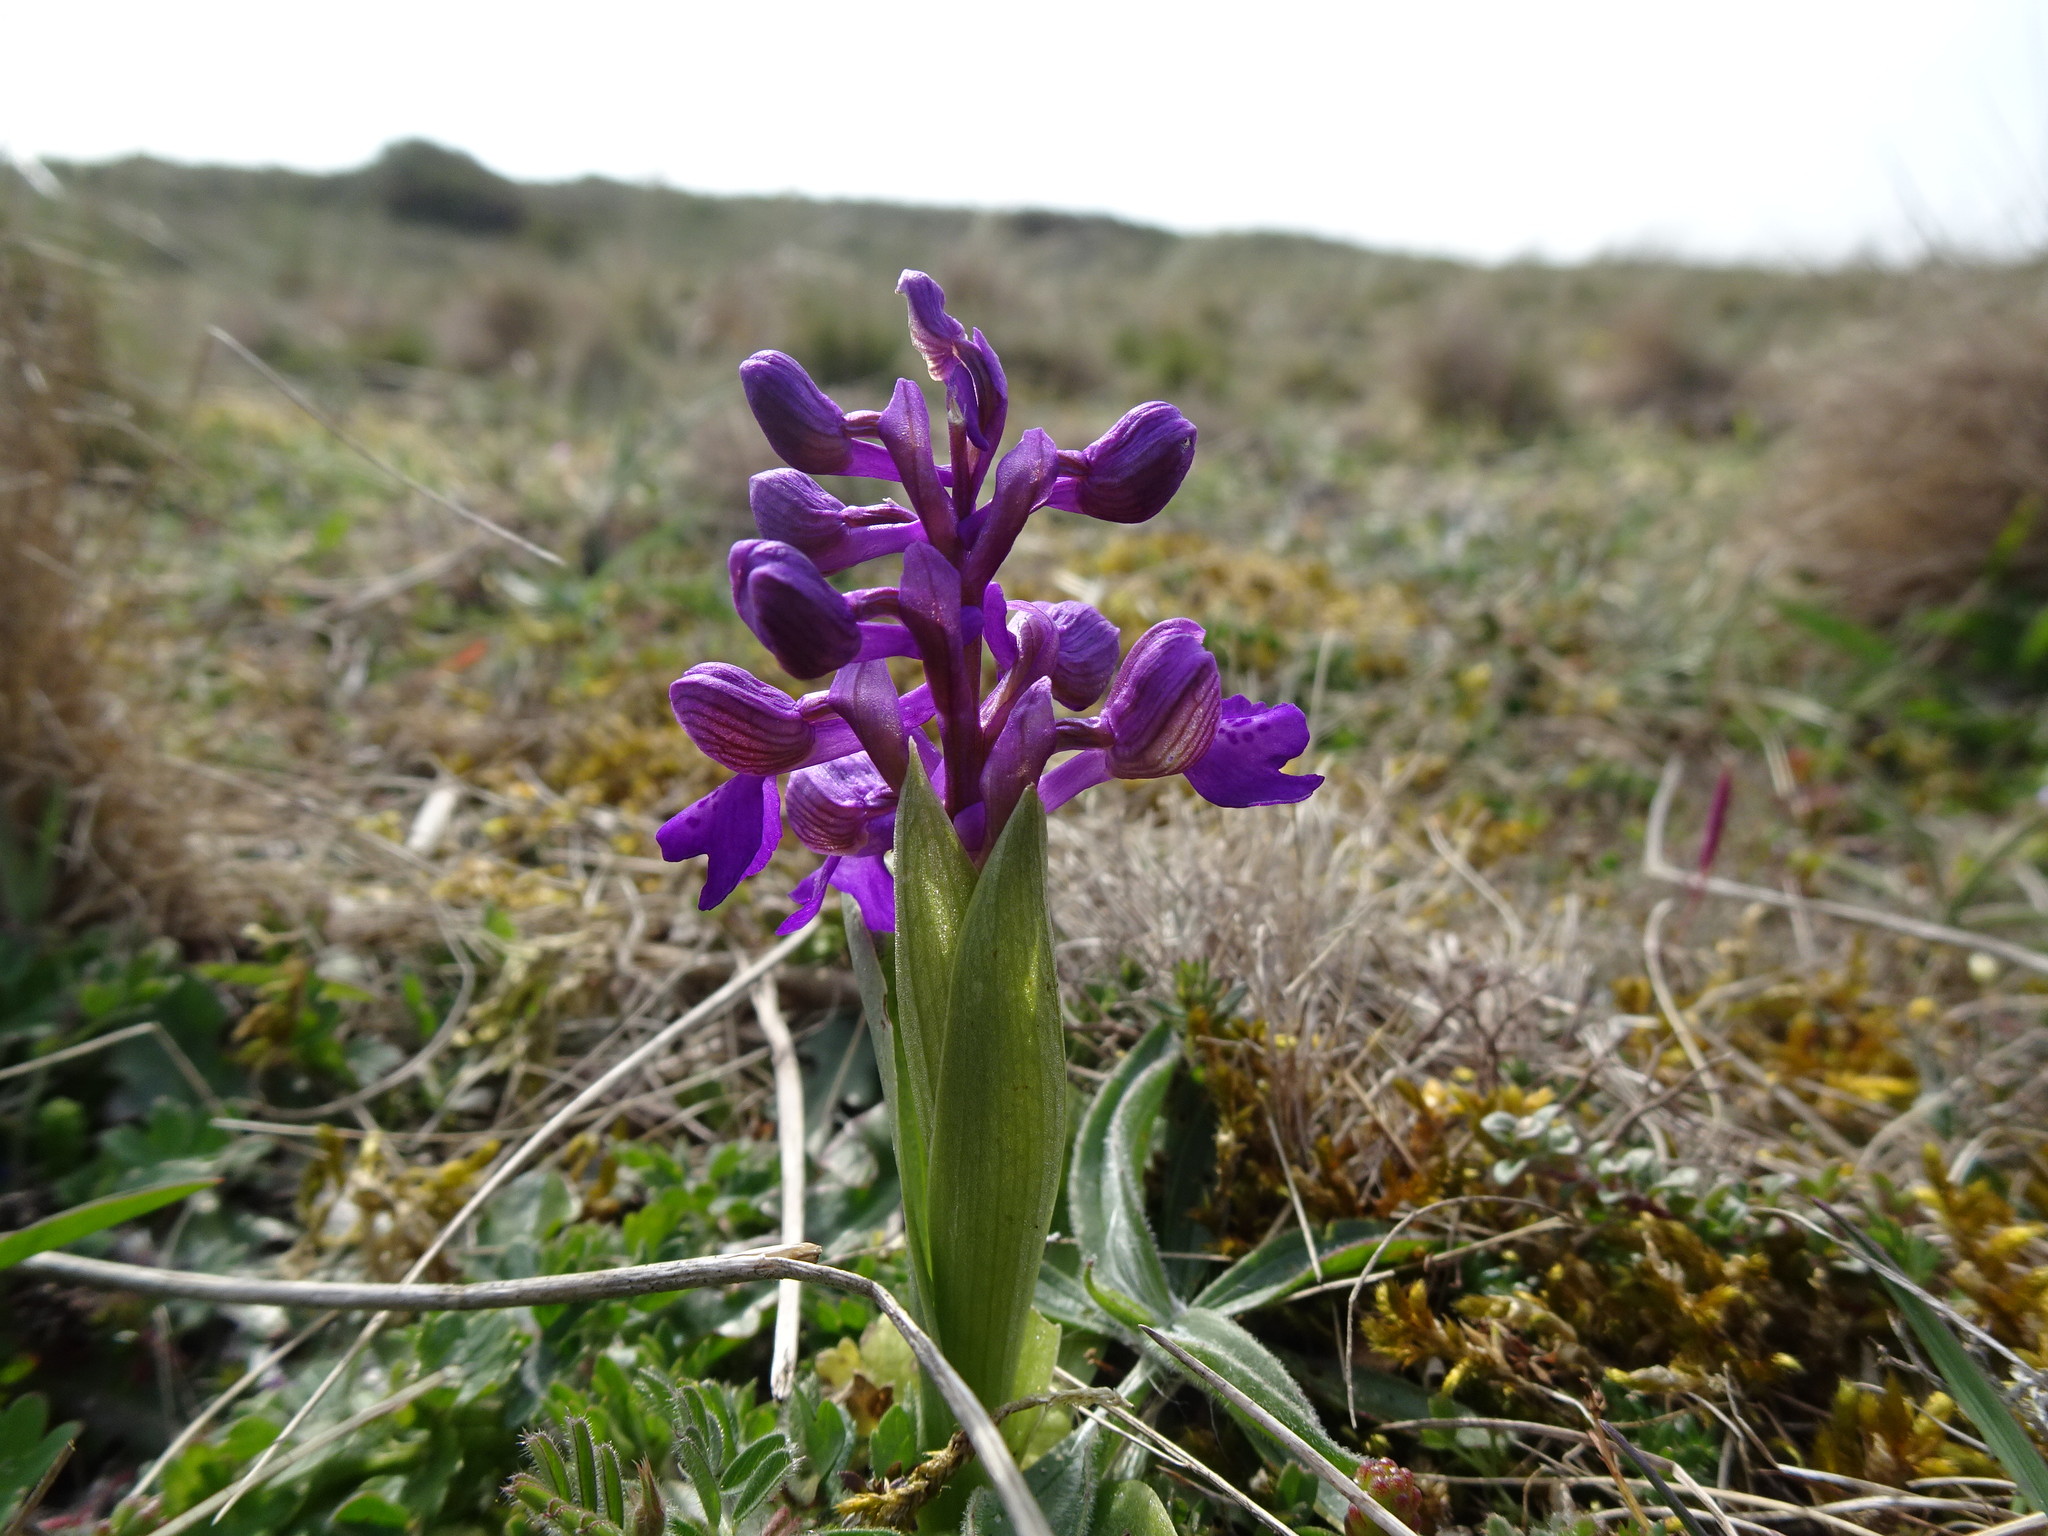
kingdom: Plantae
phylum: Tracheophyta
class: Liliopsida
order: Asparagales
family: Orchidaceae
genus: Anacamptis
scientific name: Anacamptis morio
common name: Green-winged orchid
